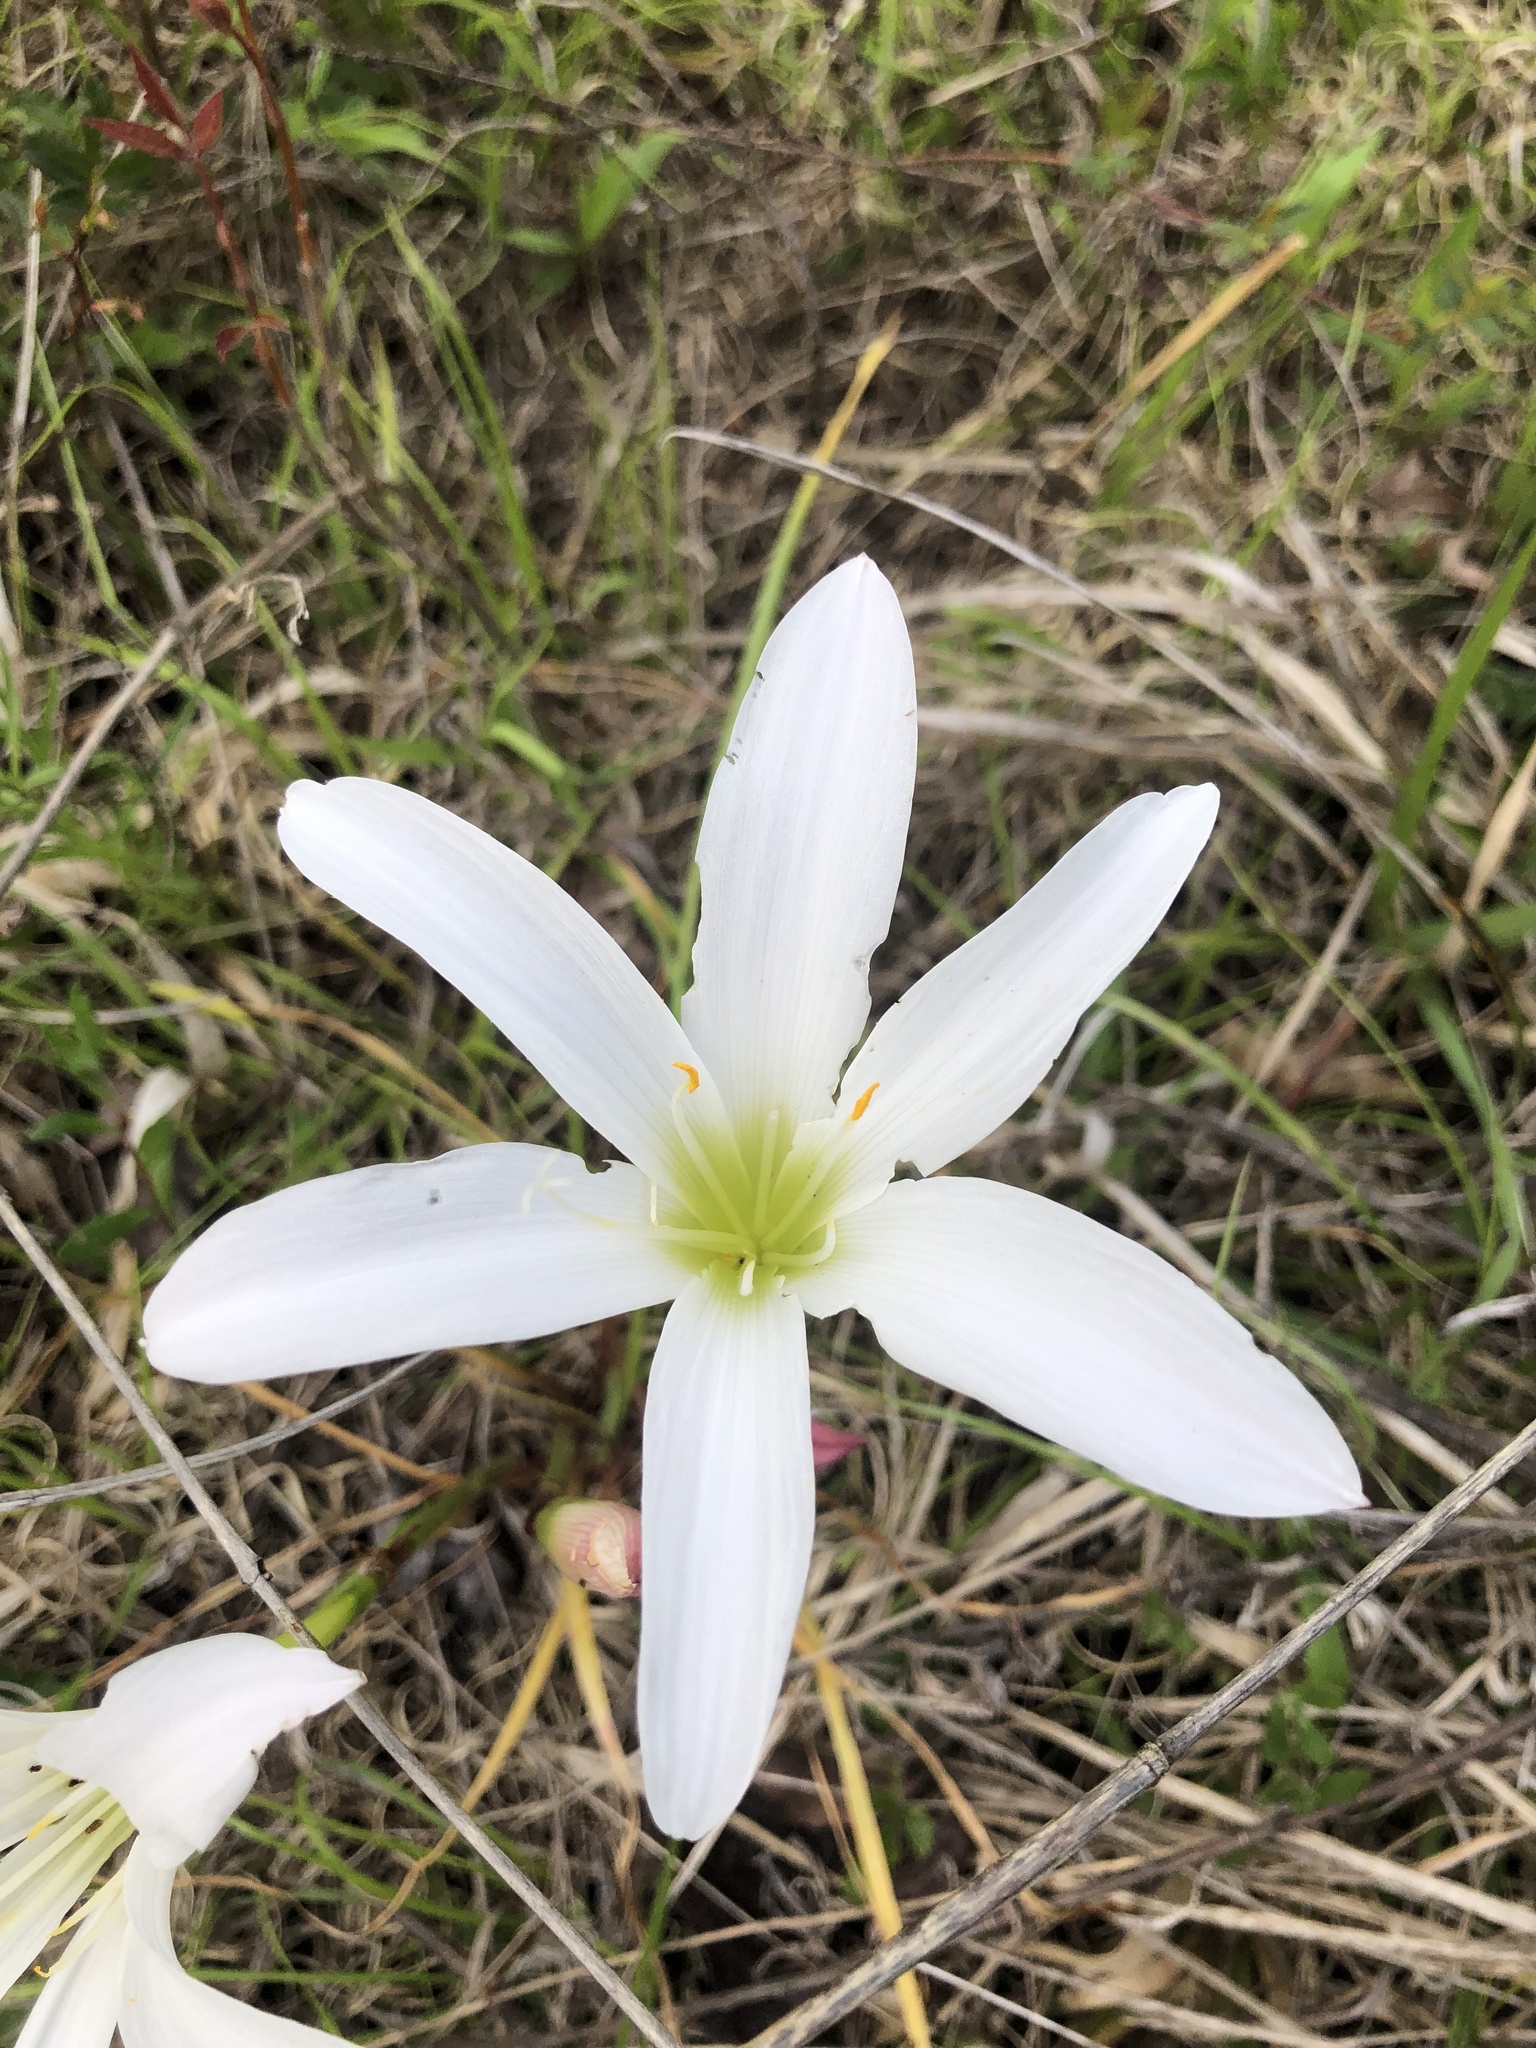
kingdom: Plantae
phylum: Tracheophyta
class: Liliopsida
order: Asparagales
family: Amaryllidaceae
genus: Zephyranthes
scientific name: Zephyranthes atamasco
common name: Atamasco lily
